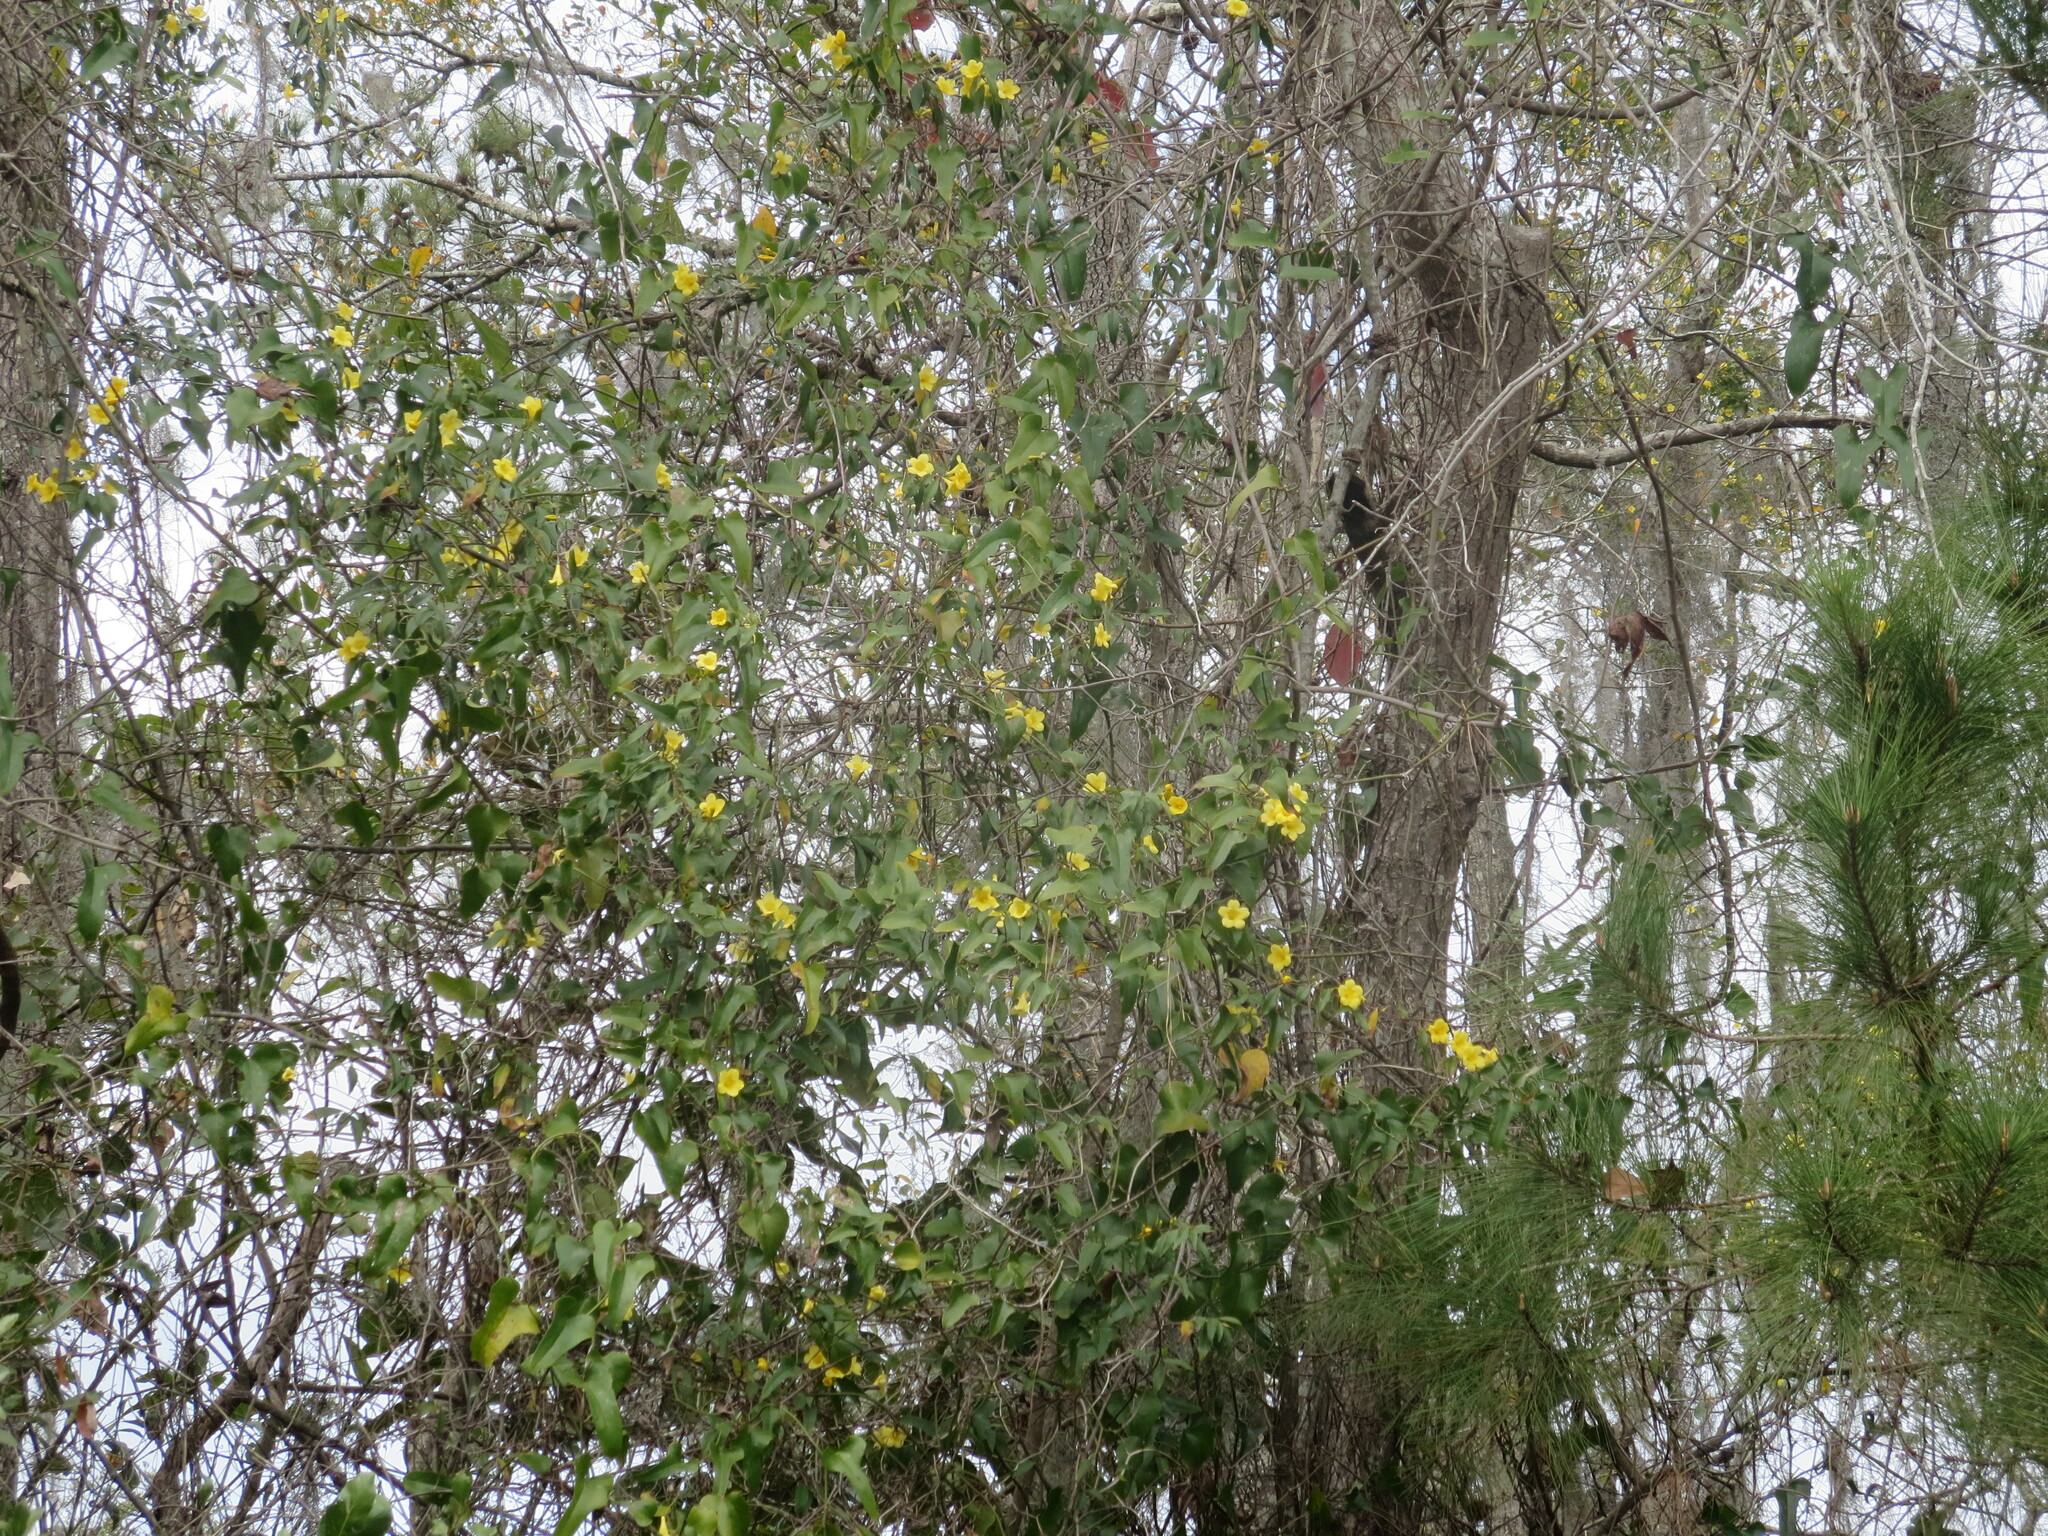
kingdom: Plantae
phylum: Tracheophyta
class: Magnoliopsida
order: Gentianales
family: Gelsemiaceae
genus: Gelsemium
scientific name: Gelsemium sempervirens
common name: Carolina-jasmine
